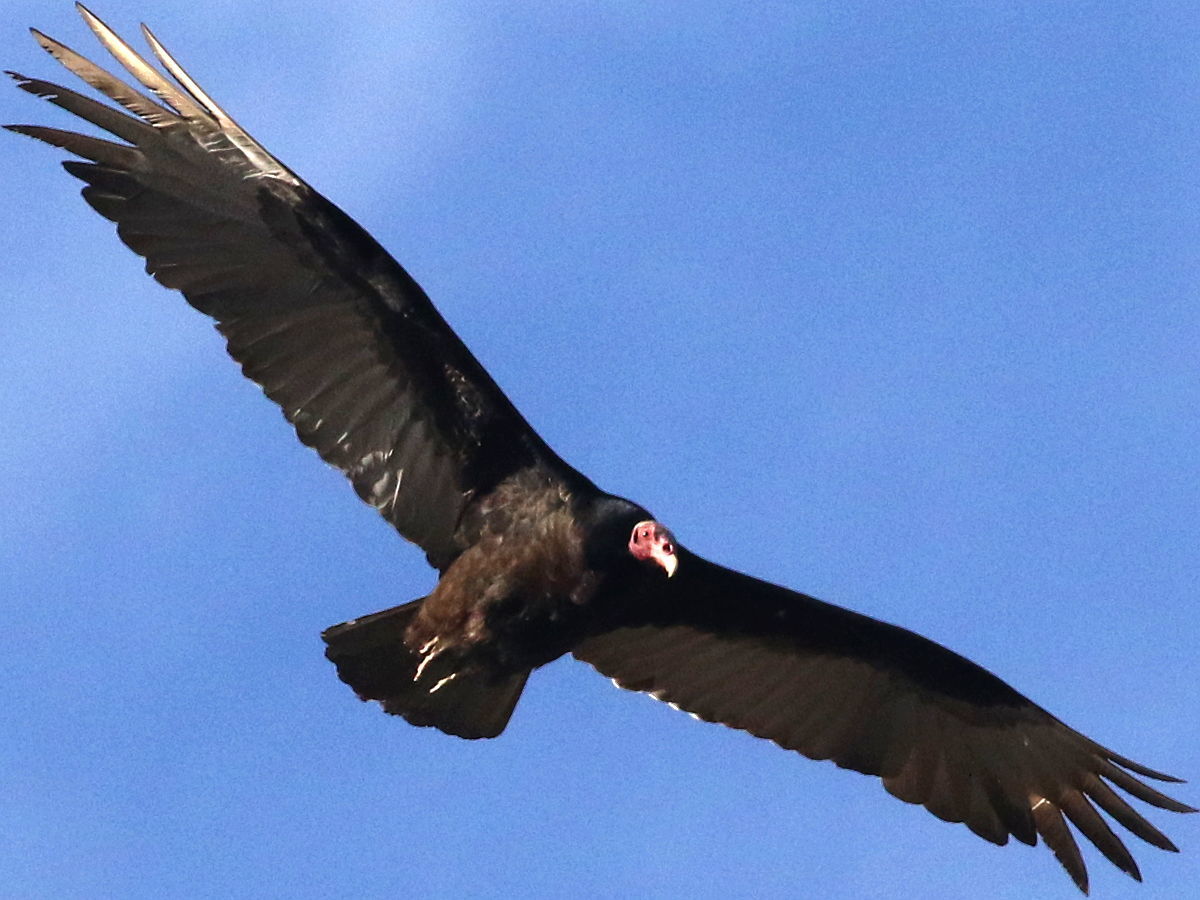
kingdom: Animalia
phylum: Chordata
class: Aves
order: Accipitriformes
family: Cathartidae
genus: Cathartes
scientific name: Cathartes aura
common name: Turkey vulture
